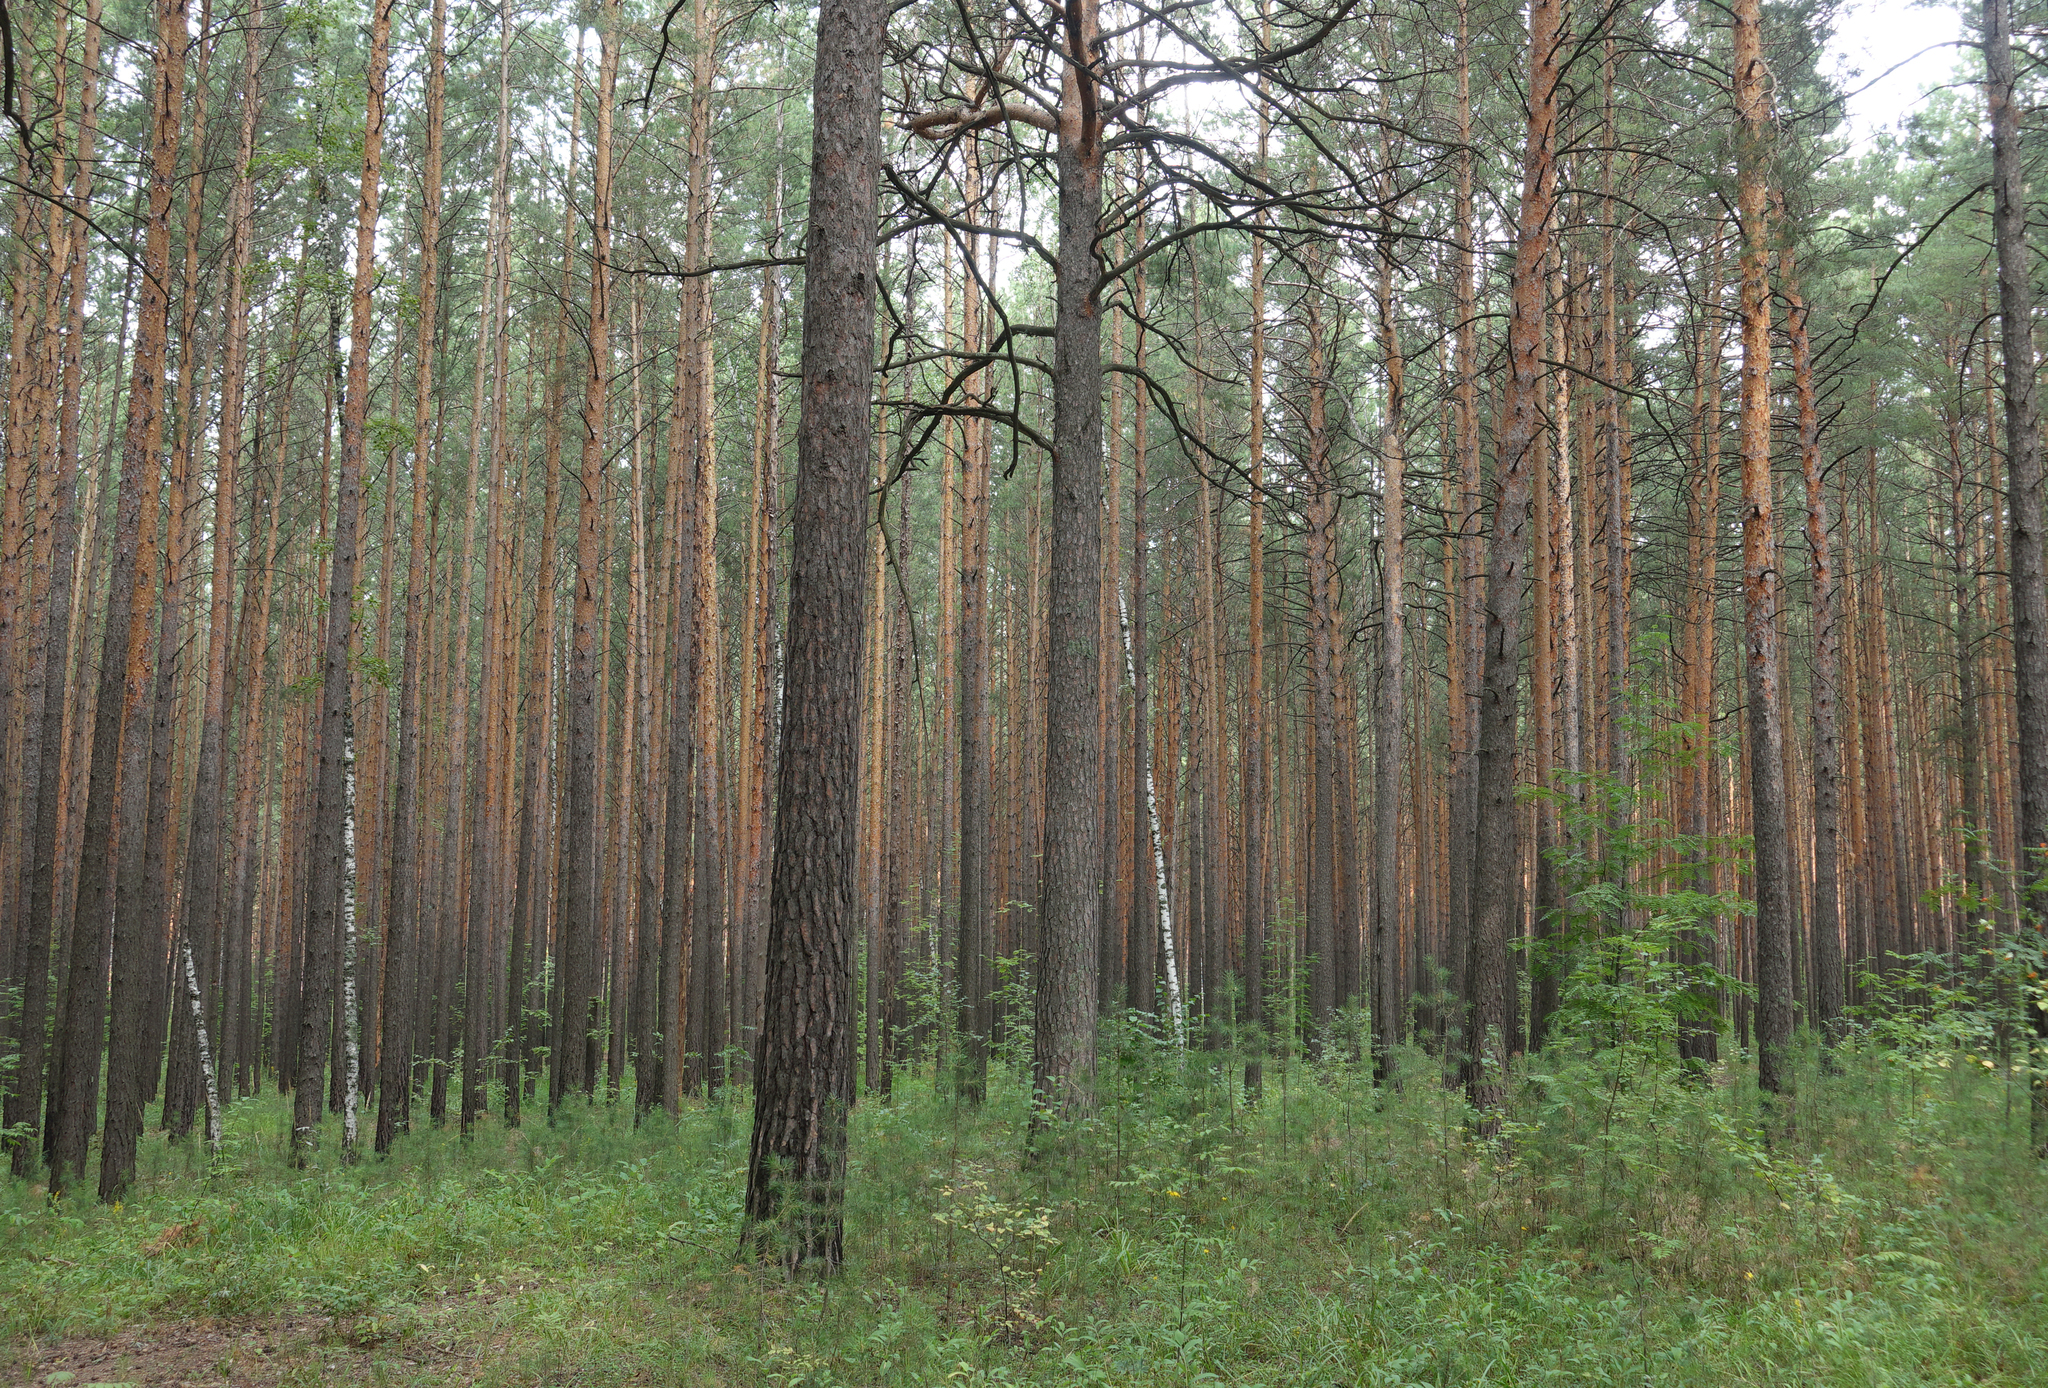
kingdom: Plantae
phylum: Tracheophyta
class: Pinopsida
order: Pinales
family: Pinaceae
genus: Pinus
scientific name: Pinus sylvestris
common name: Scots pine
